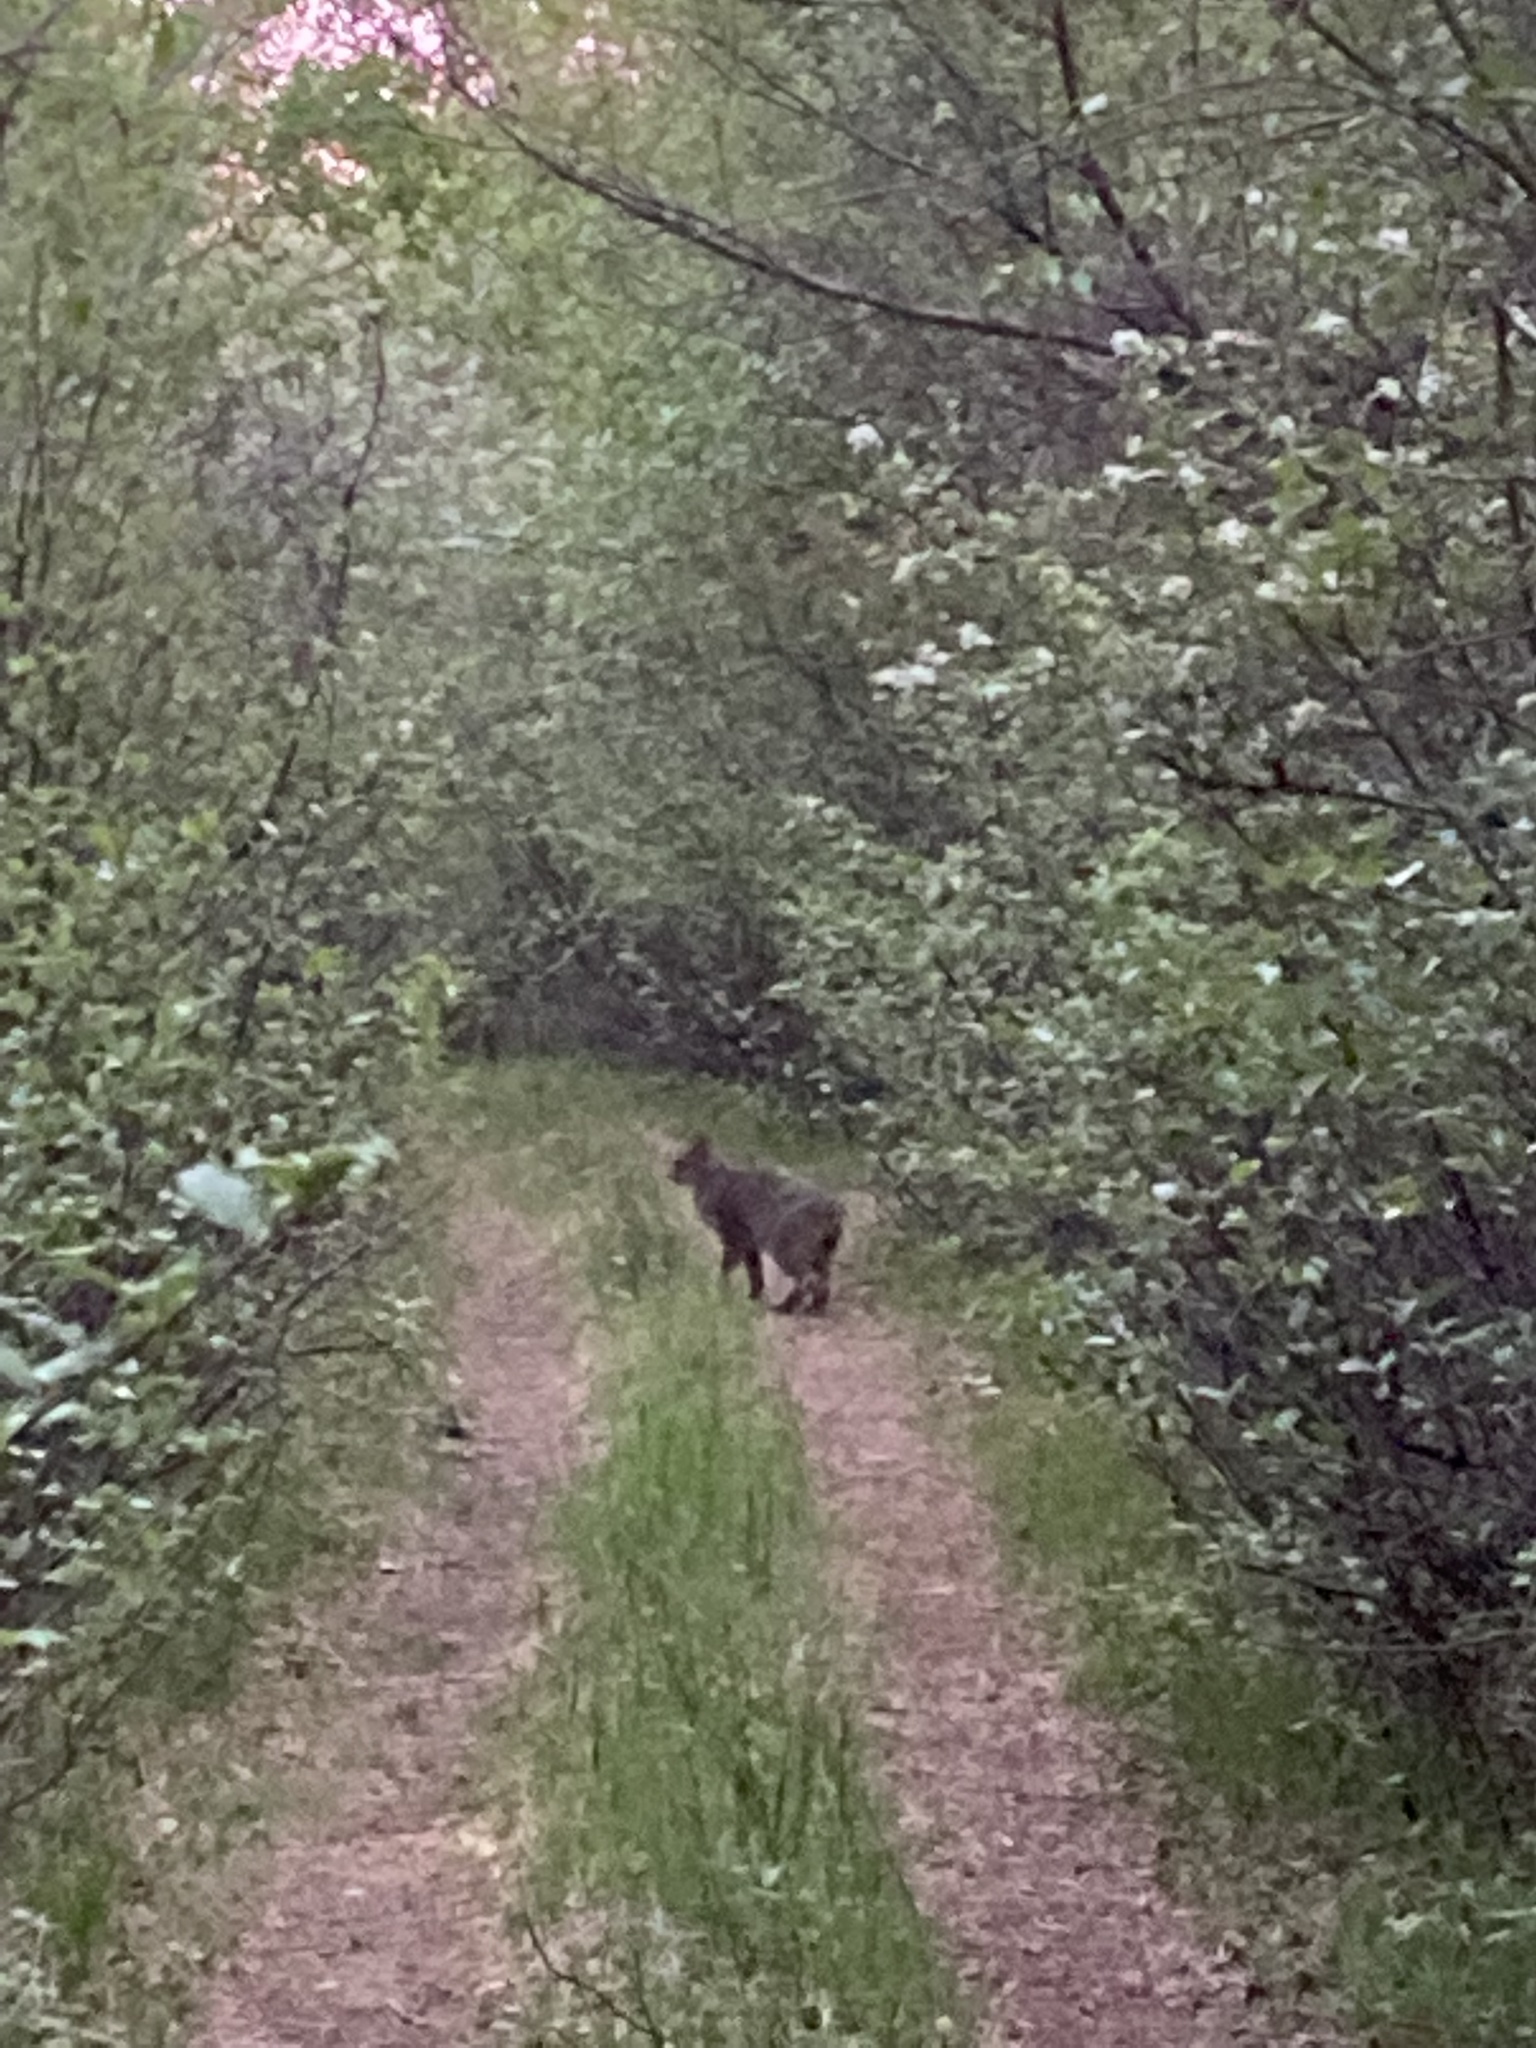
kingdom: Animalia
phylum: Chordata
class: Mammalia
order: Carnivora
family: Felidae
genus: Lynx
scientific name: Lynx canadensis
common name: Canadian lynx
